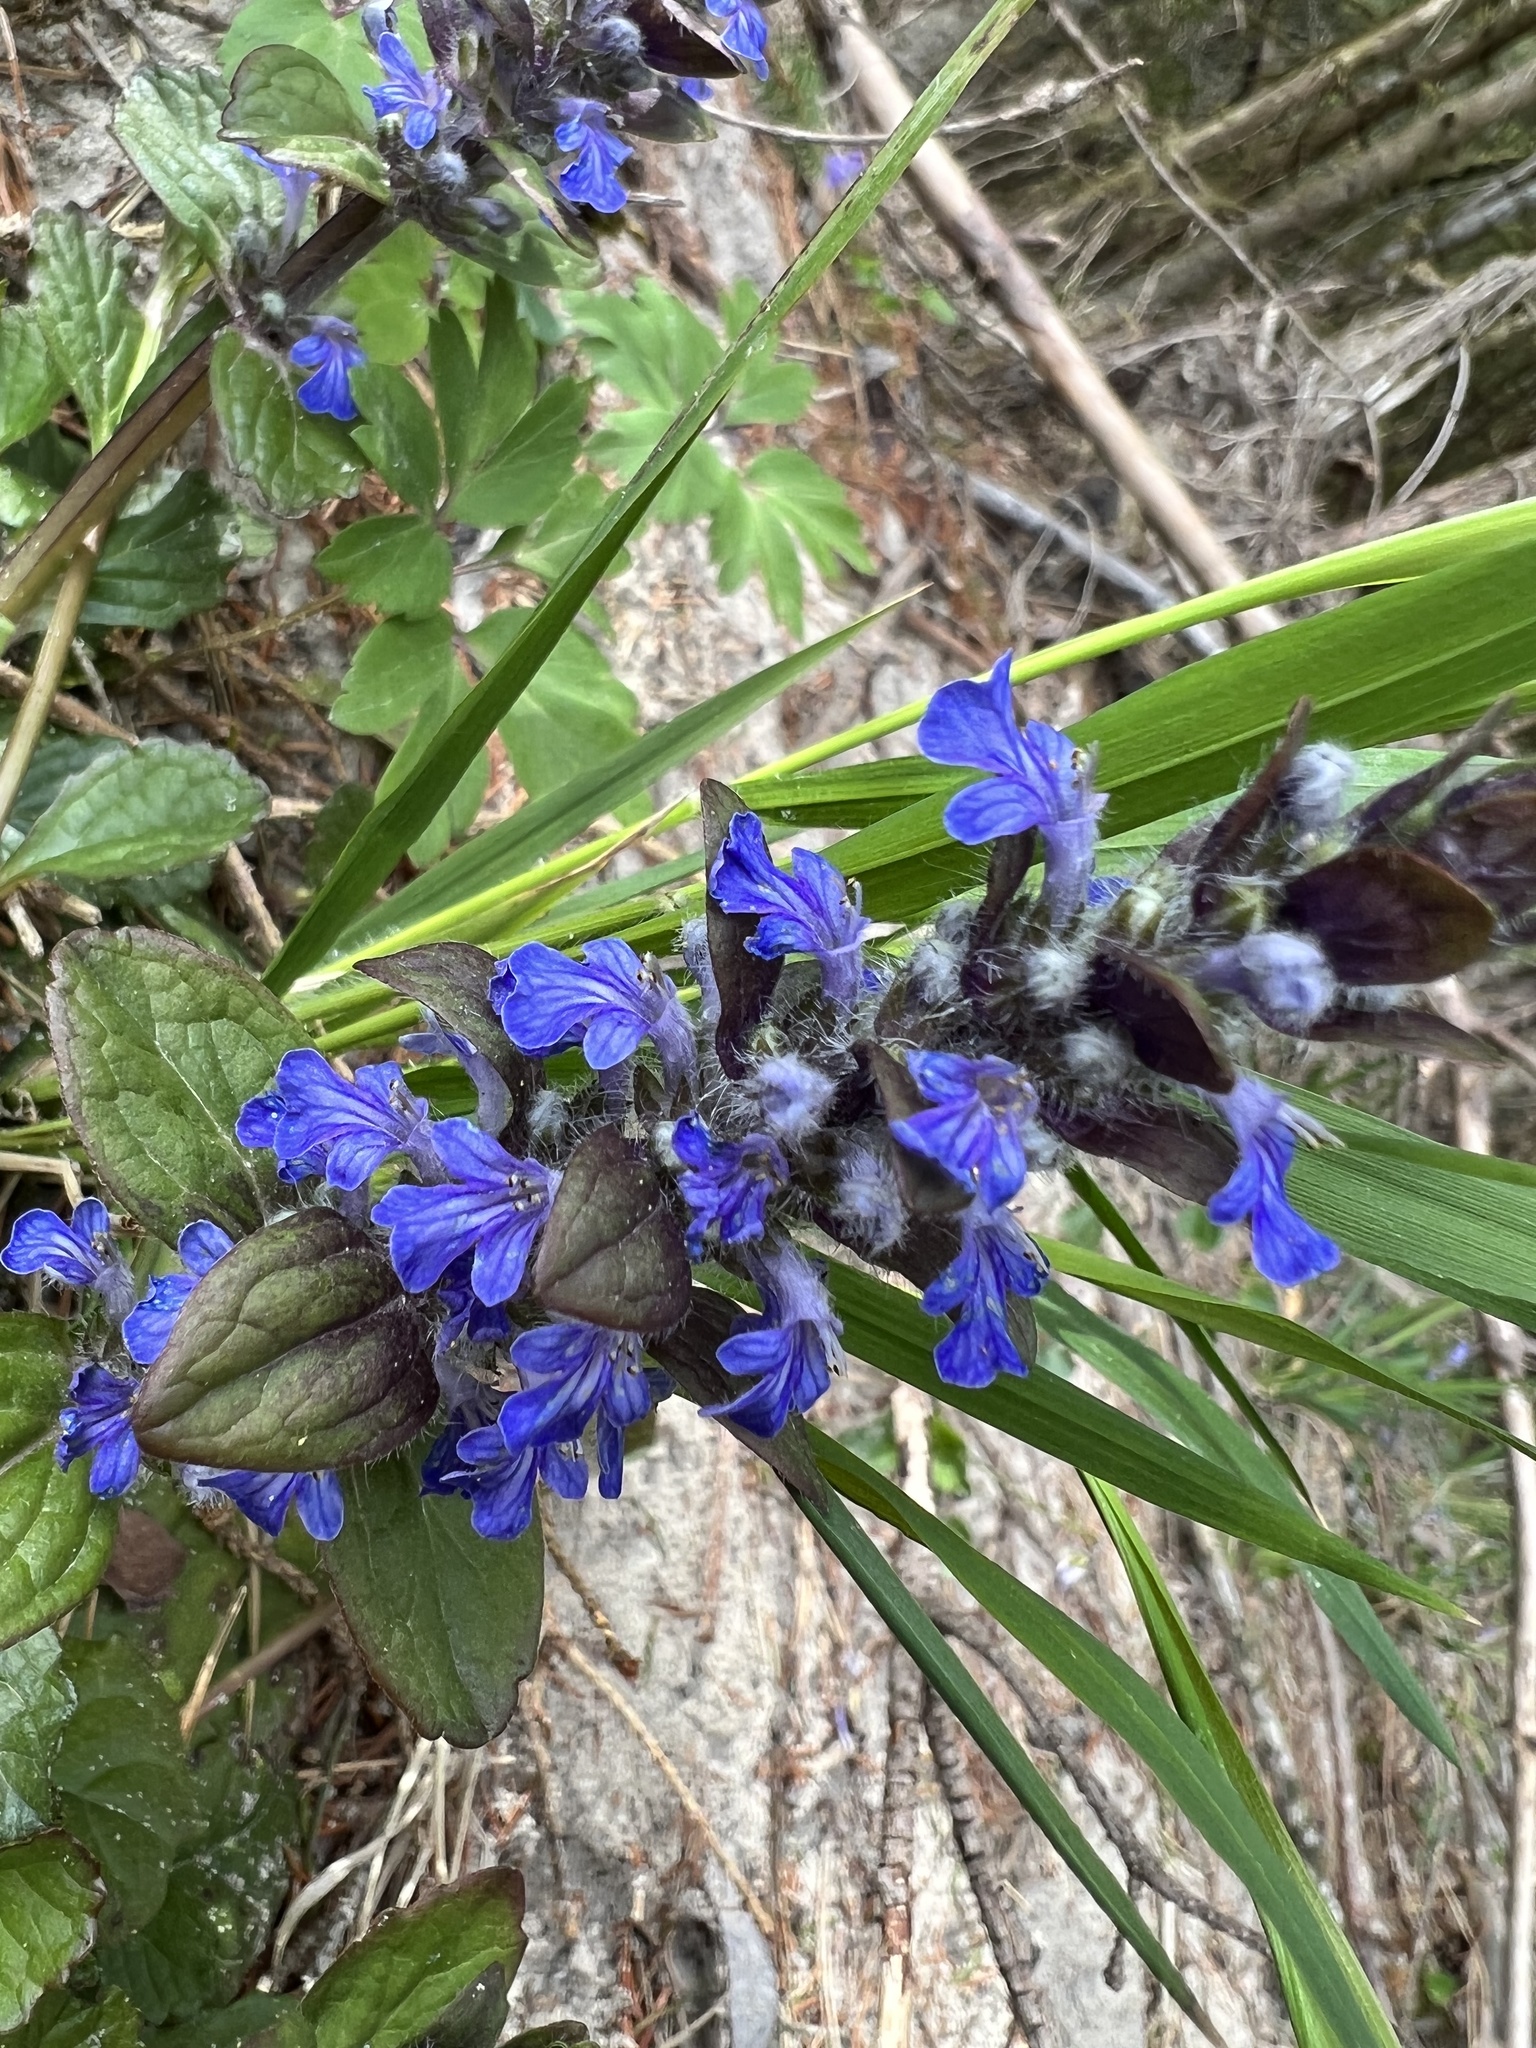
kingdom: Plantae
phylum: Tracheophyta
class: Magnoliopsida
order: Lamiales
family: Lamiaceae
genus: Ajuga
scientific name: Ajuga reptans
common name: Bugle
